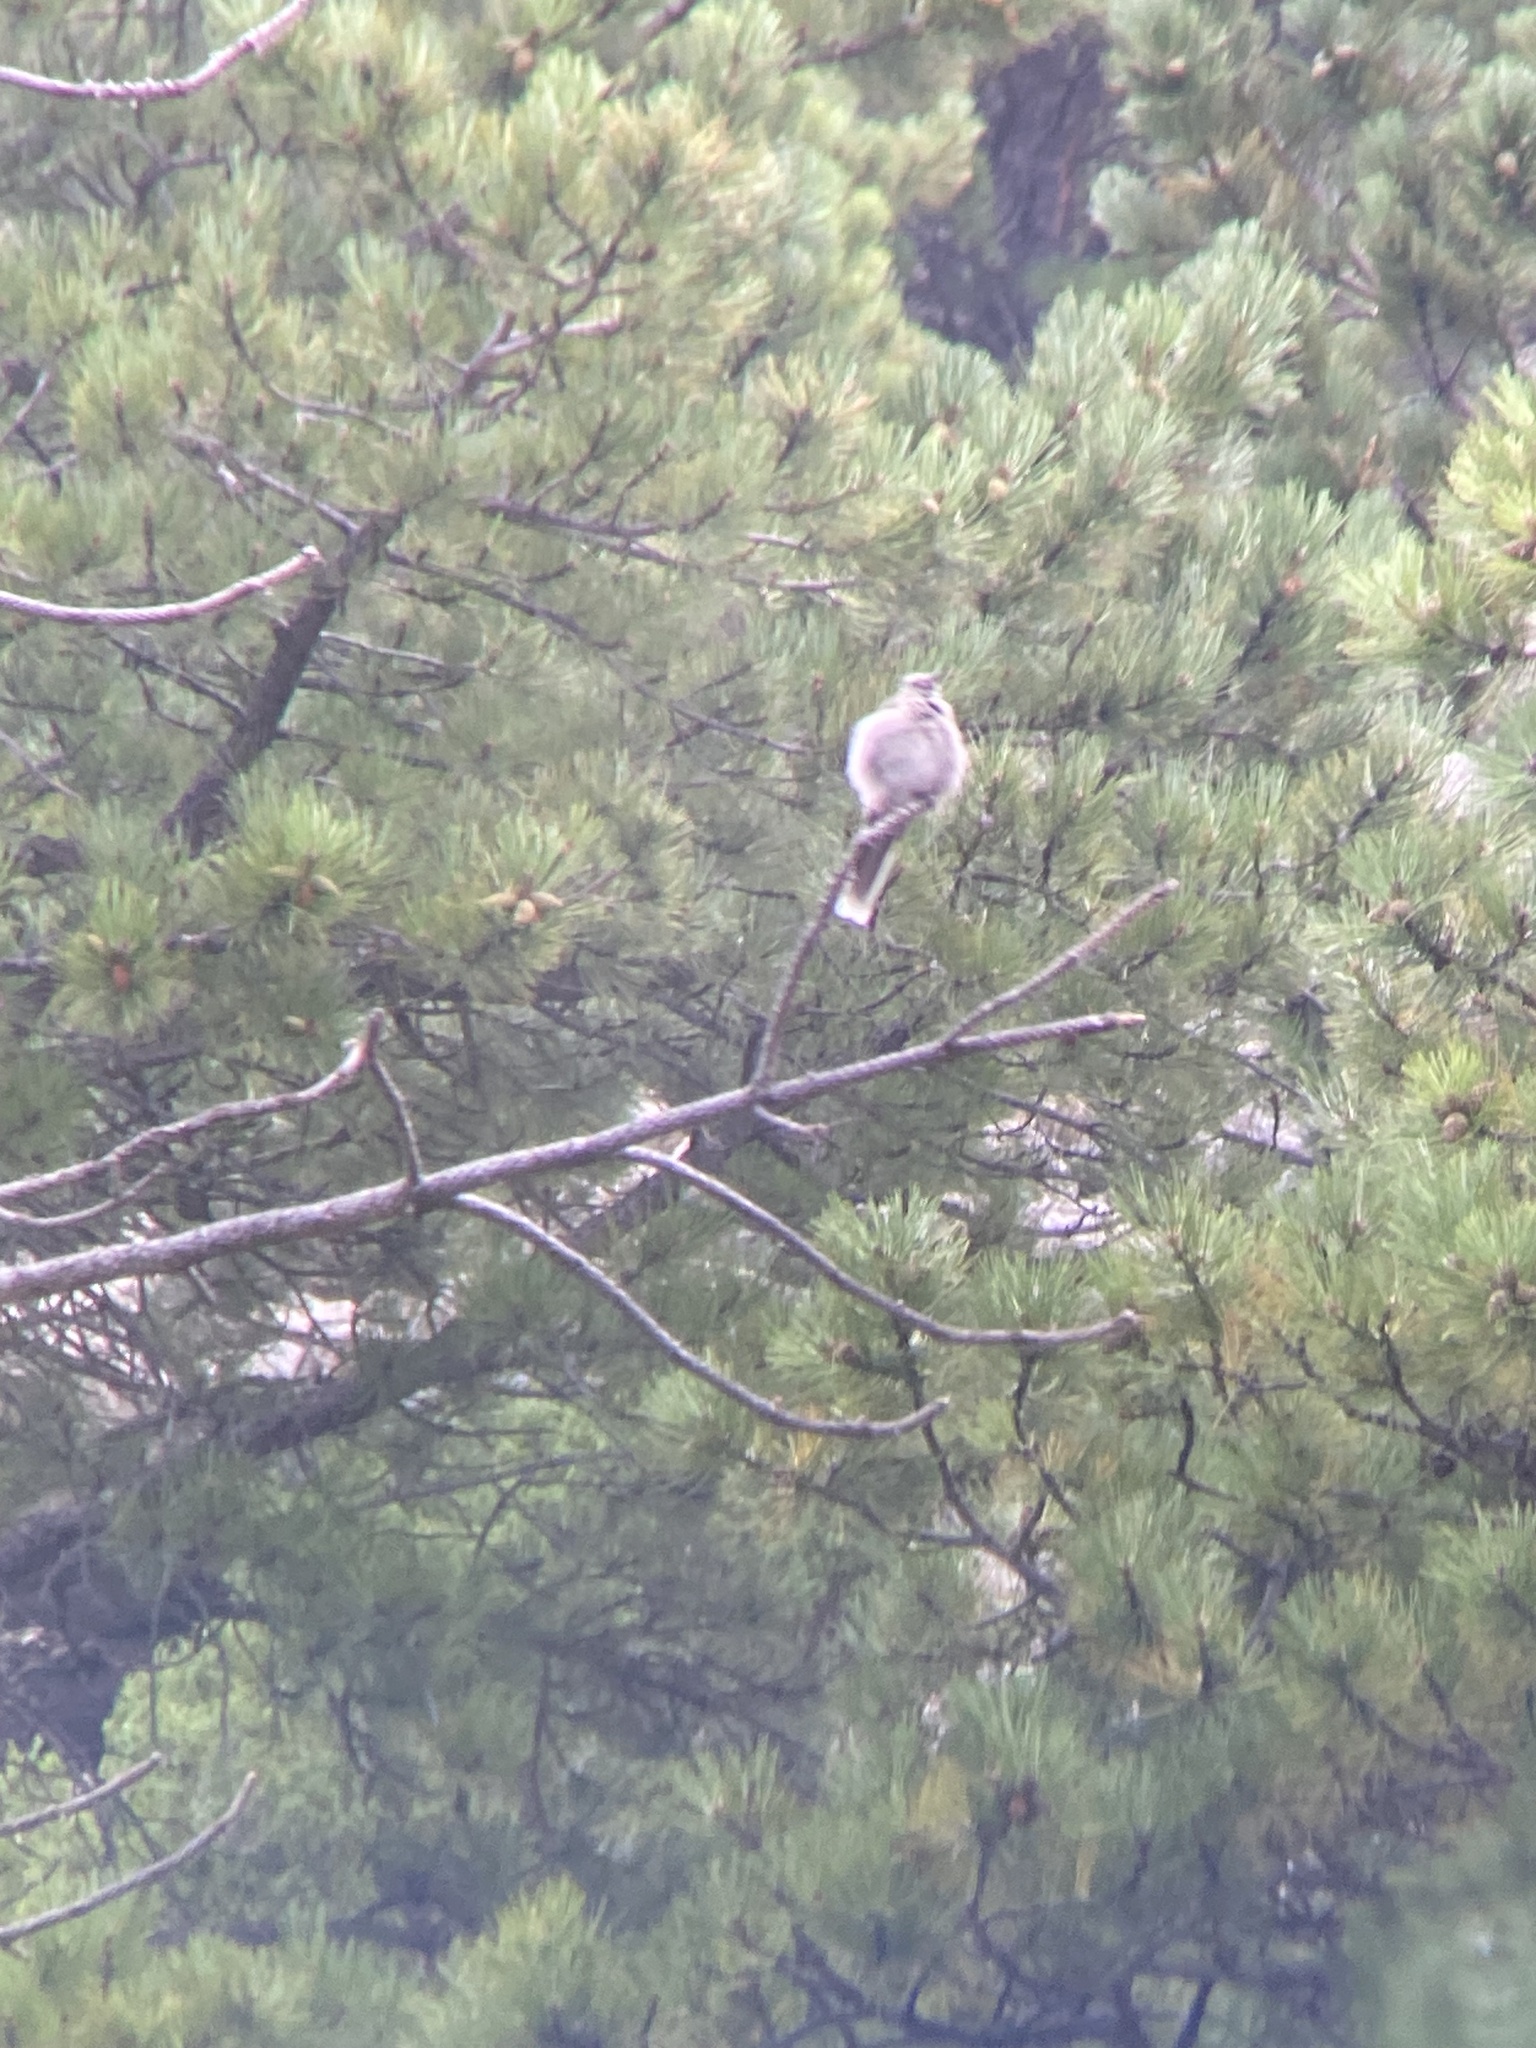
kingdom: Animalia
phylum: Chordata
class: Aves
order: Passeriformes
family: Turdidae
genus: Myadestes
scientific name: Myadestes townsendi
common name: Townsend's solitaire
